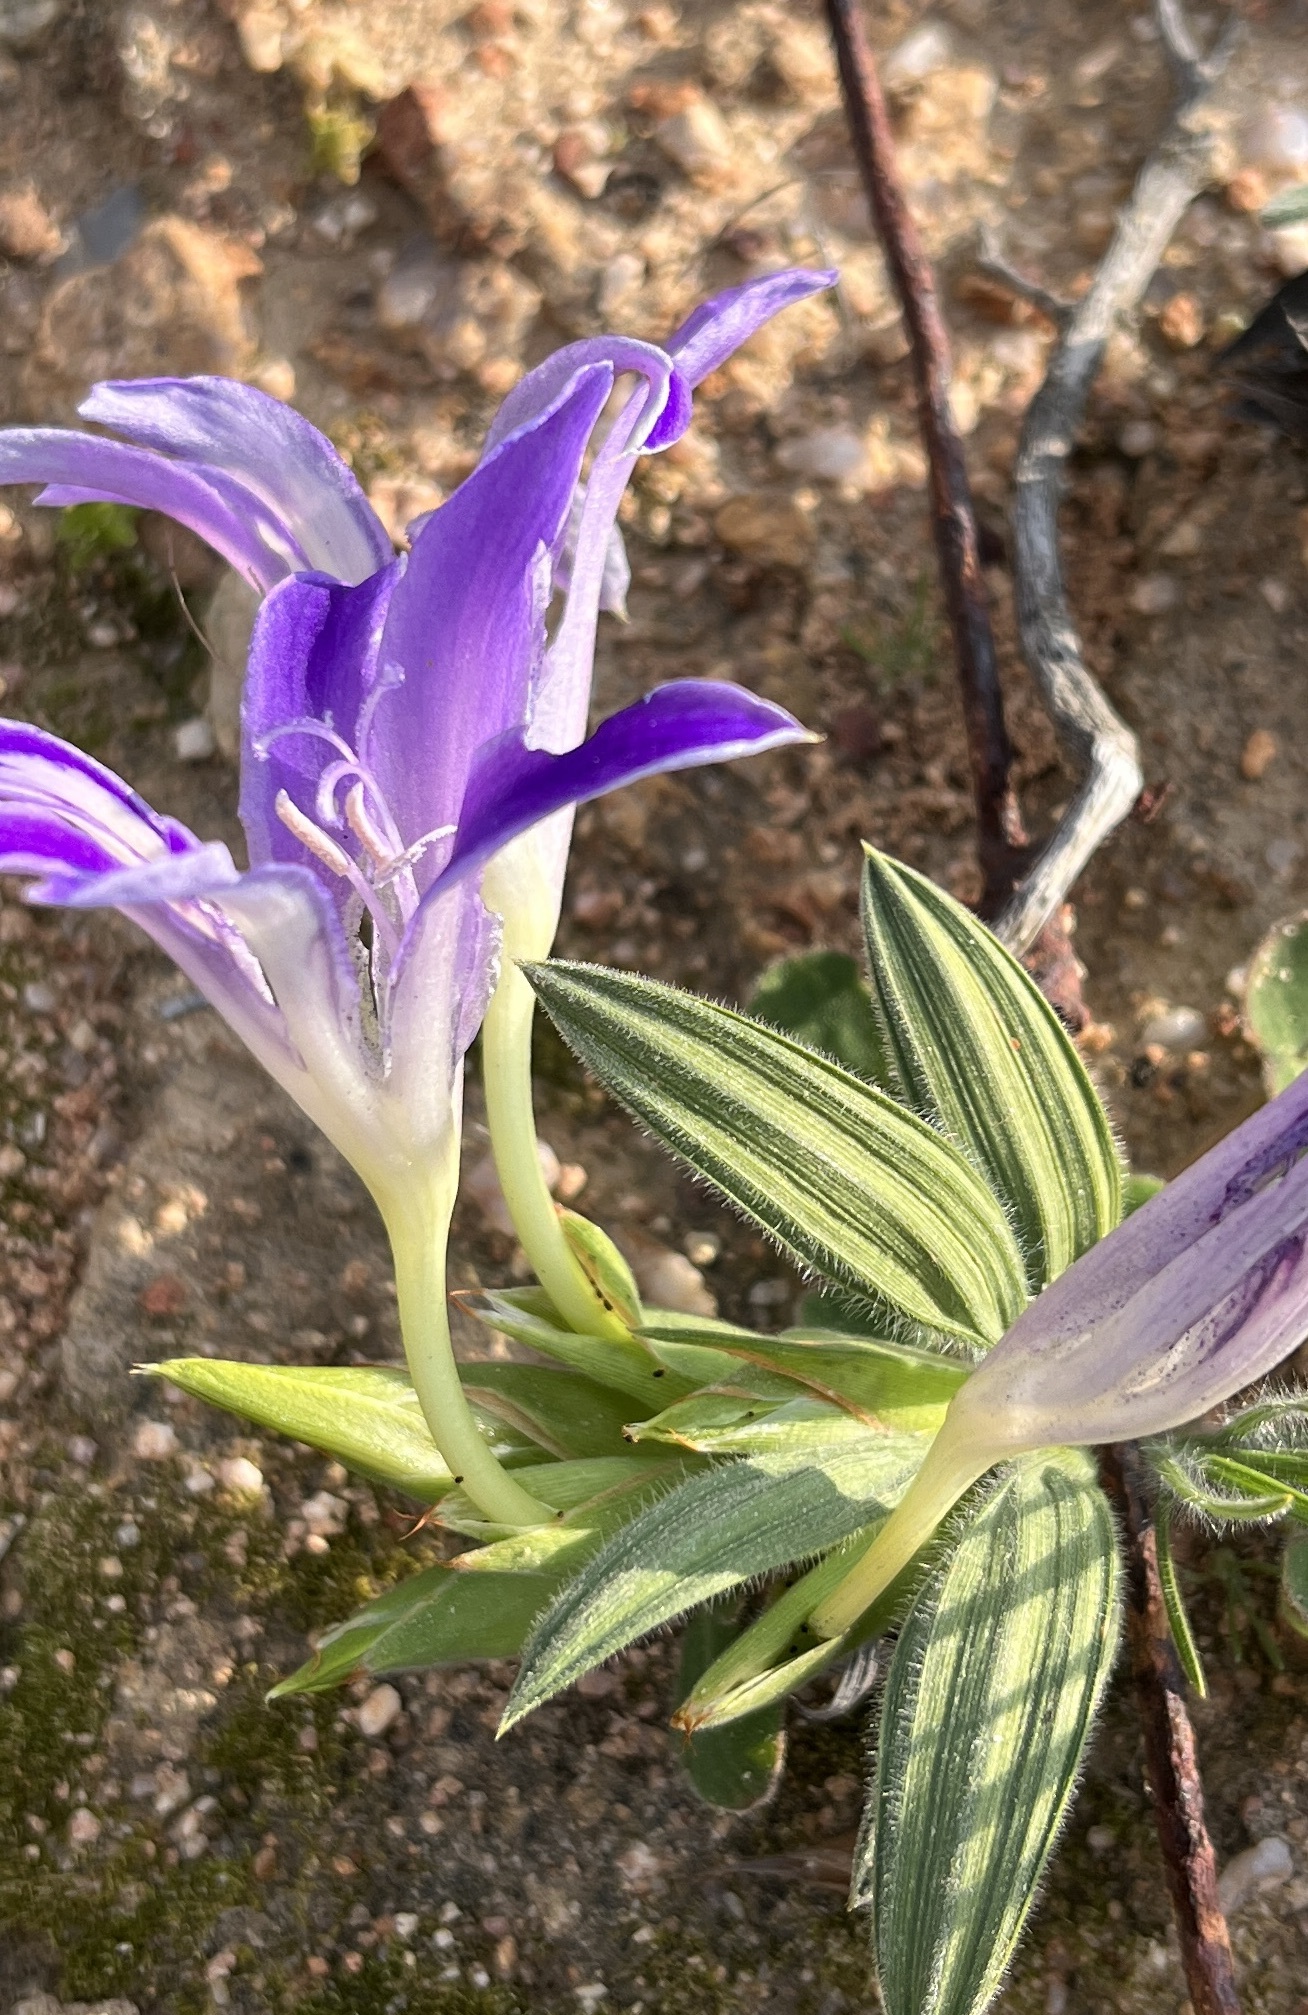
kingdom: Plantae
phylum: Tracheophyta
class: Liliopsida
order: Asparagales
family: Iridaceae
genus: Babiana
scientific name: Babiana curviscapa
